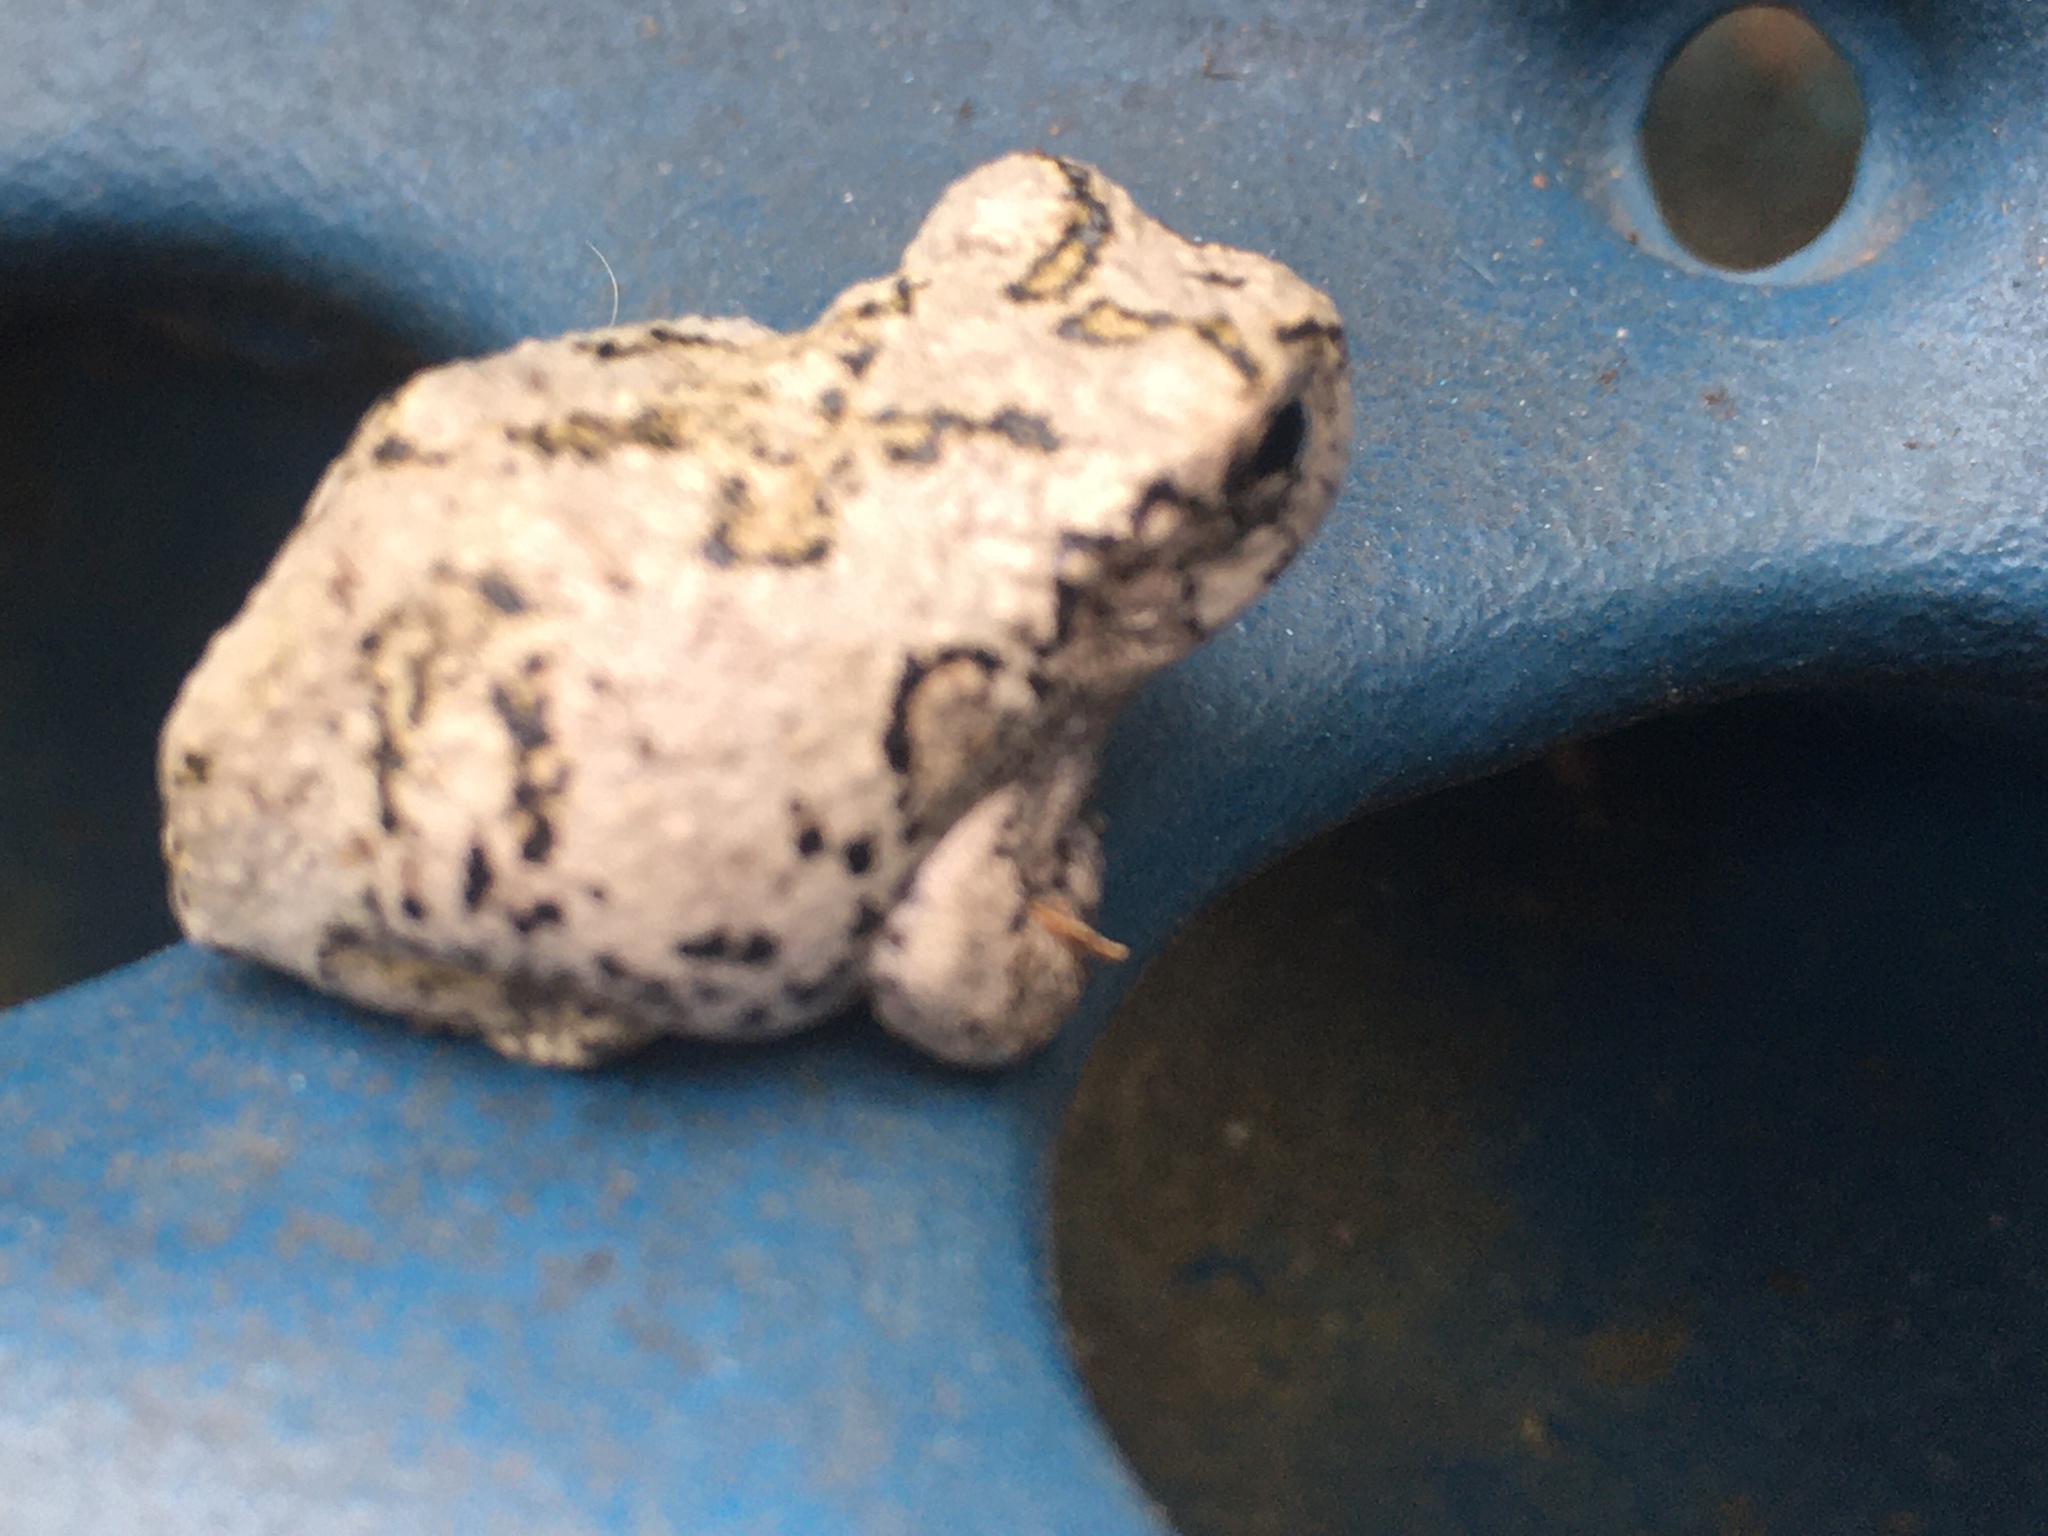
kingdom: Animalia
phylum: Chordata
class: Amphibia
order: Anura
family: Hylidae
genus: Hyla
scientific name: Hyla
